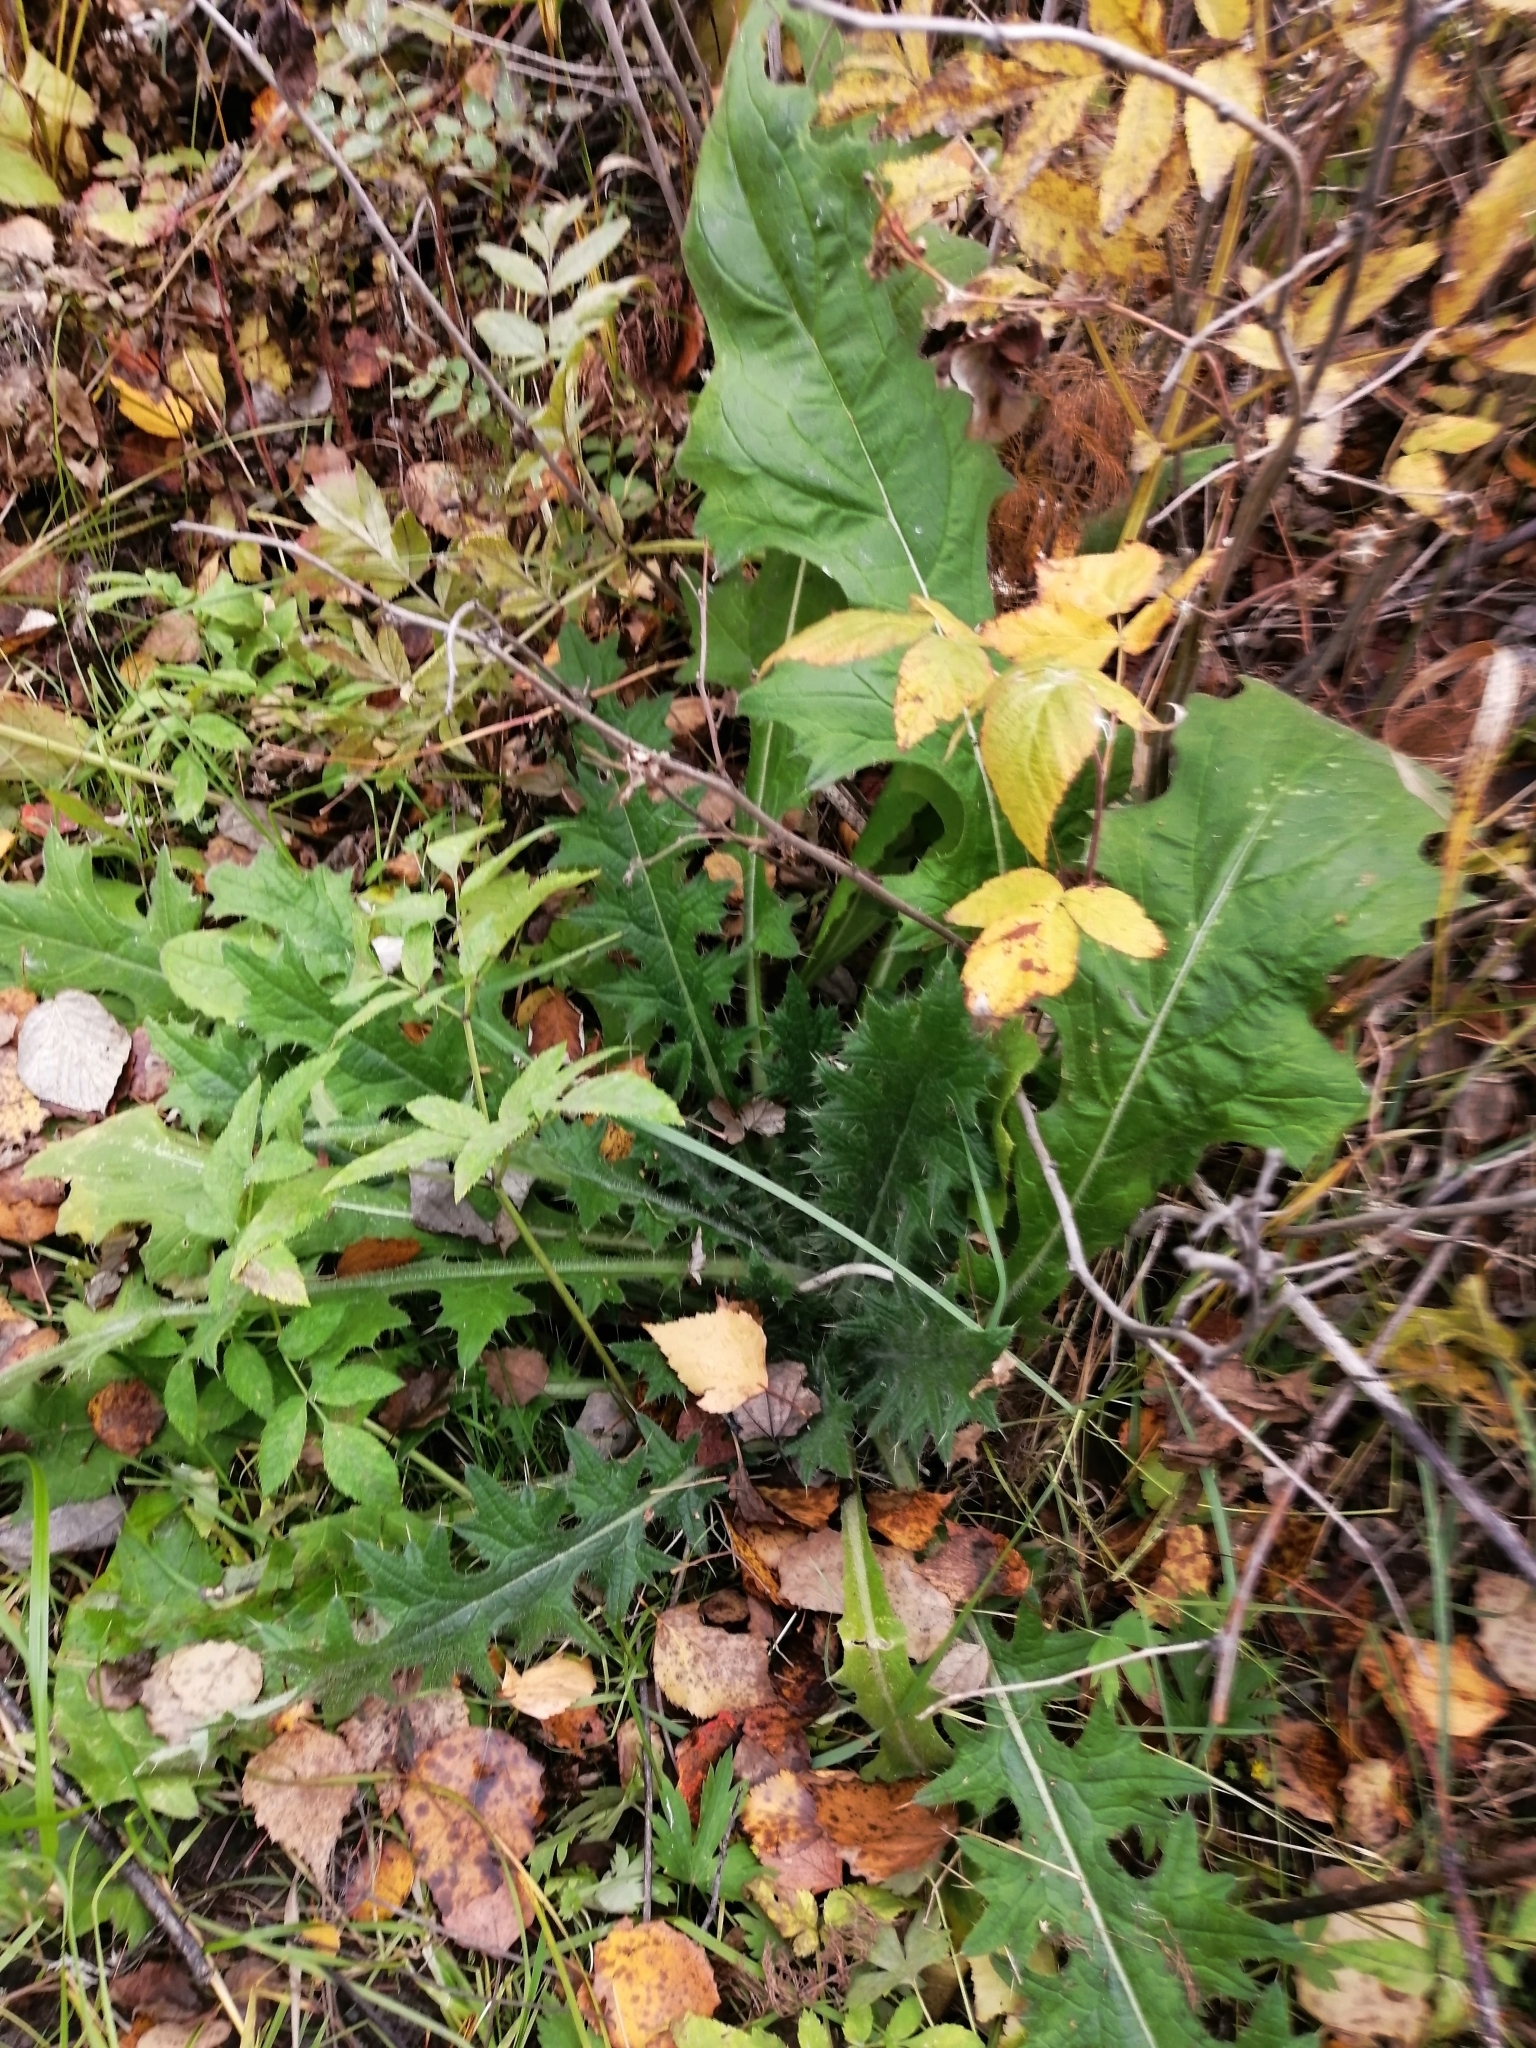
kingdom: Plantae
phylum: Tracheophyta
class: Magnoliopsida
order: Asterales
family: Asteraceae
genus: Cirsium
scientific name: Cirsium vulgare
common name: Bull thistle
